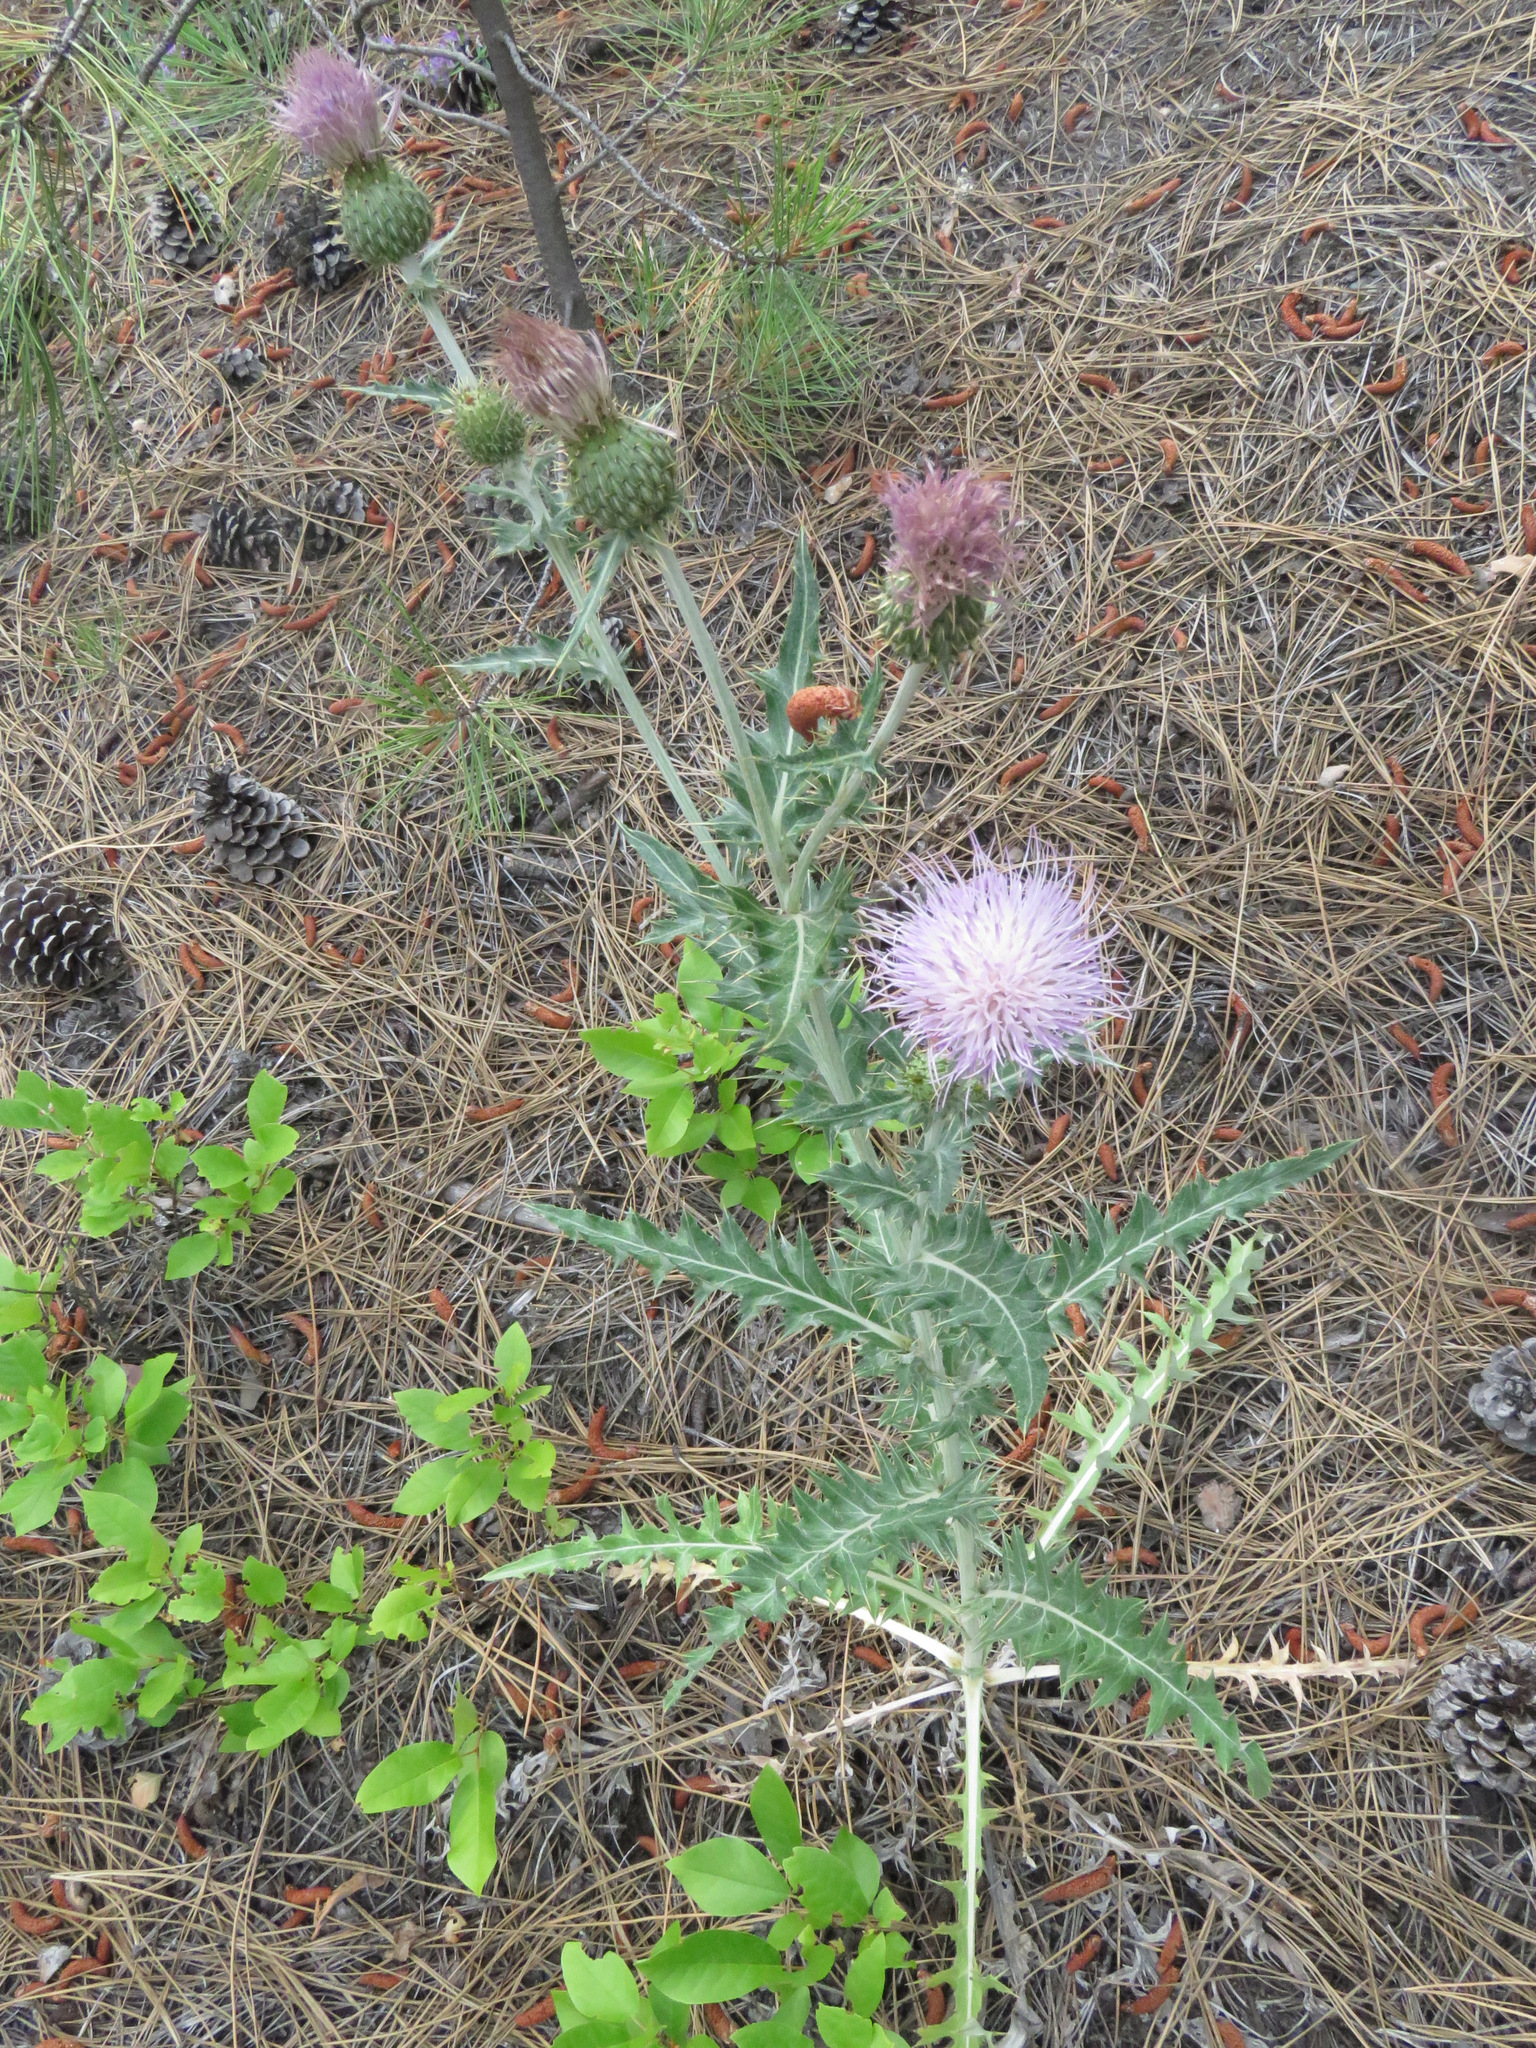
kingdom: Plantae
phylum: Tracheophyta
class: Magnoliopsida
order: Asterales
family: Asteraceae
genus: Cirsium
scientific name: Cirsium undulatum
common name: Pasture thistle
